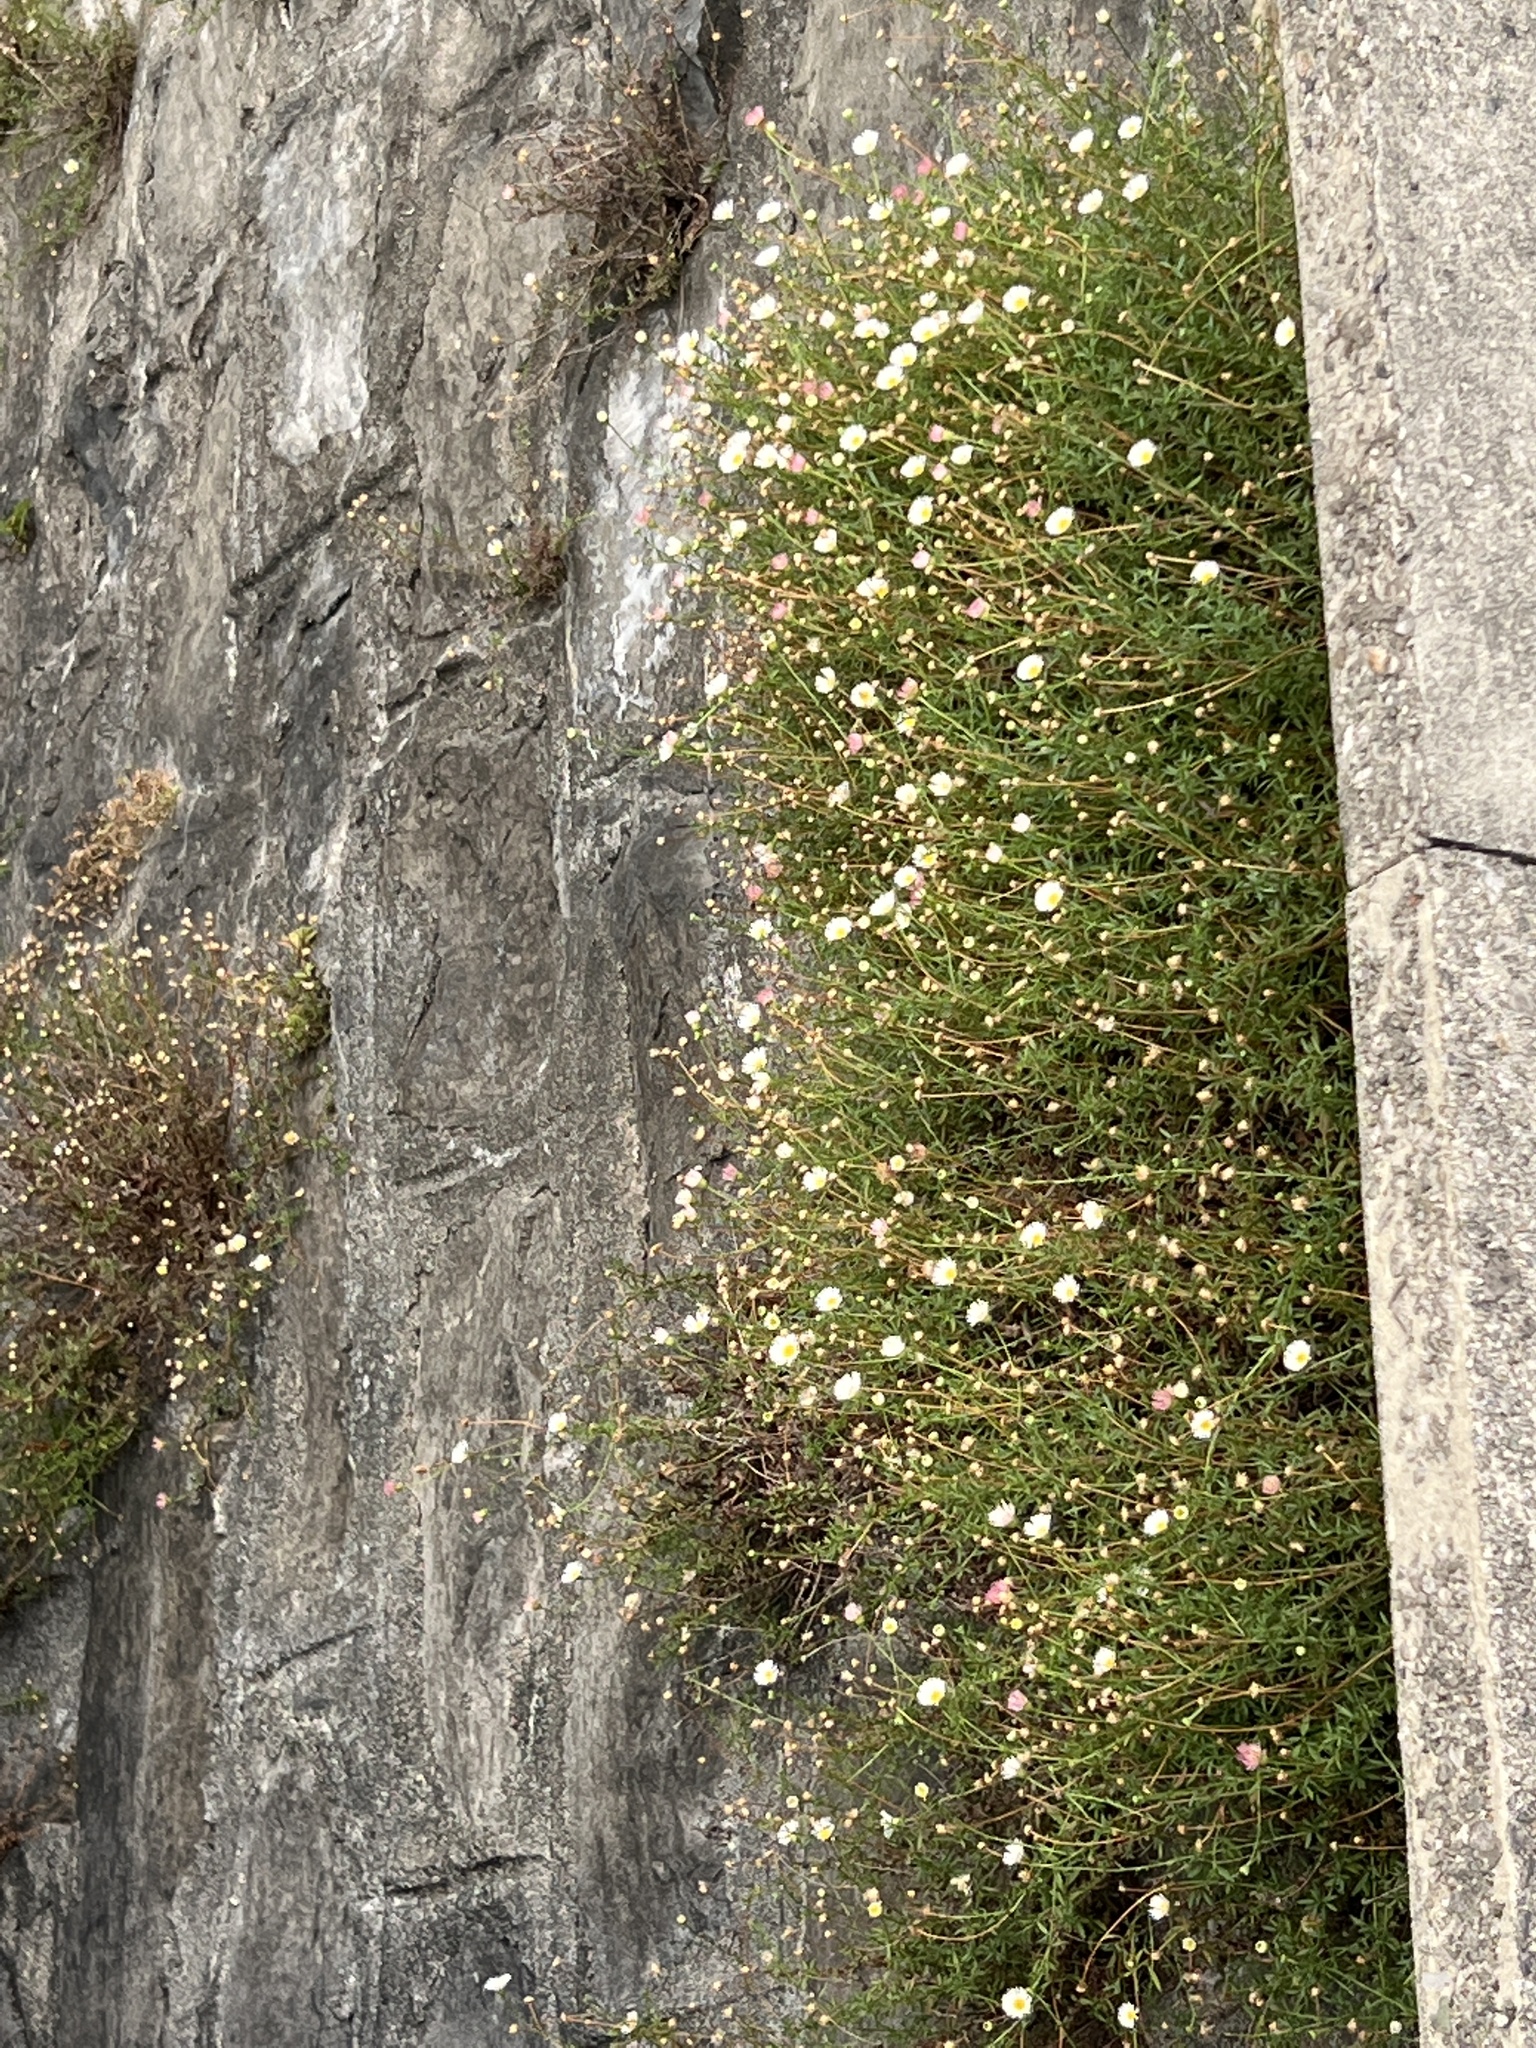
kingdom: Plantae
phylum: Tracheophyta
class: Magnoliopsida
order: Asterales
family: Asteraceae
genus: Erigeron
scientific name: Erigeron karvinskianus
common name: Mexican fleabane
